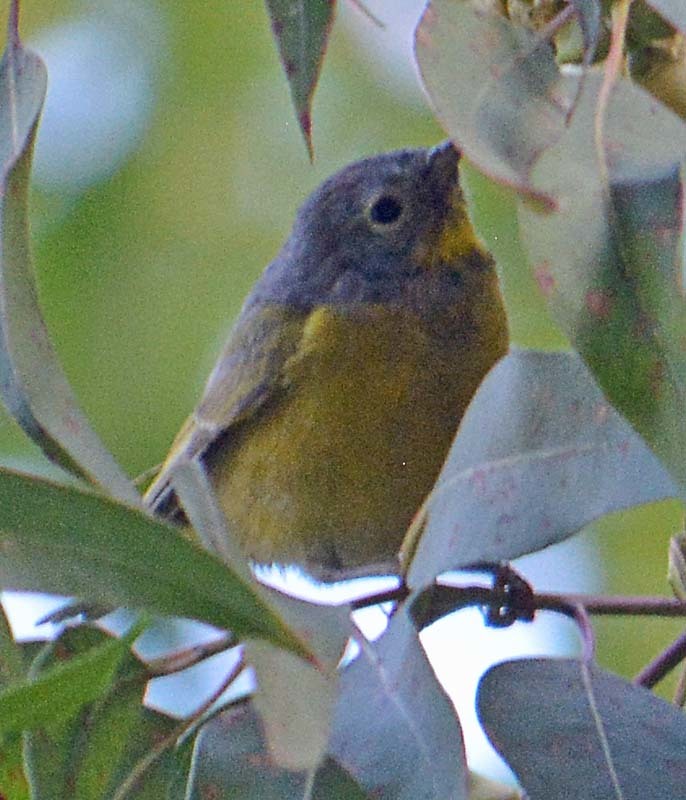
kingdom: Animalia
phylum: Chordata
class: Aves
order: Passeriformes
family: Parulidae
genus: Leiothlypis
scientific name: Leiothlypis ruficapilla
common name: Nashville warbler
